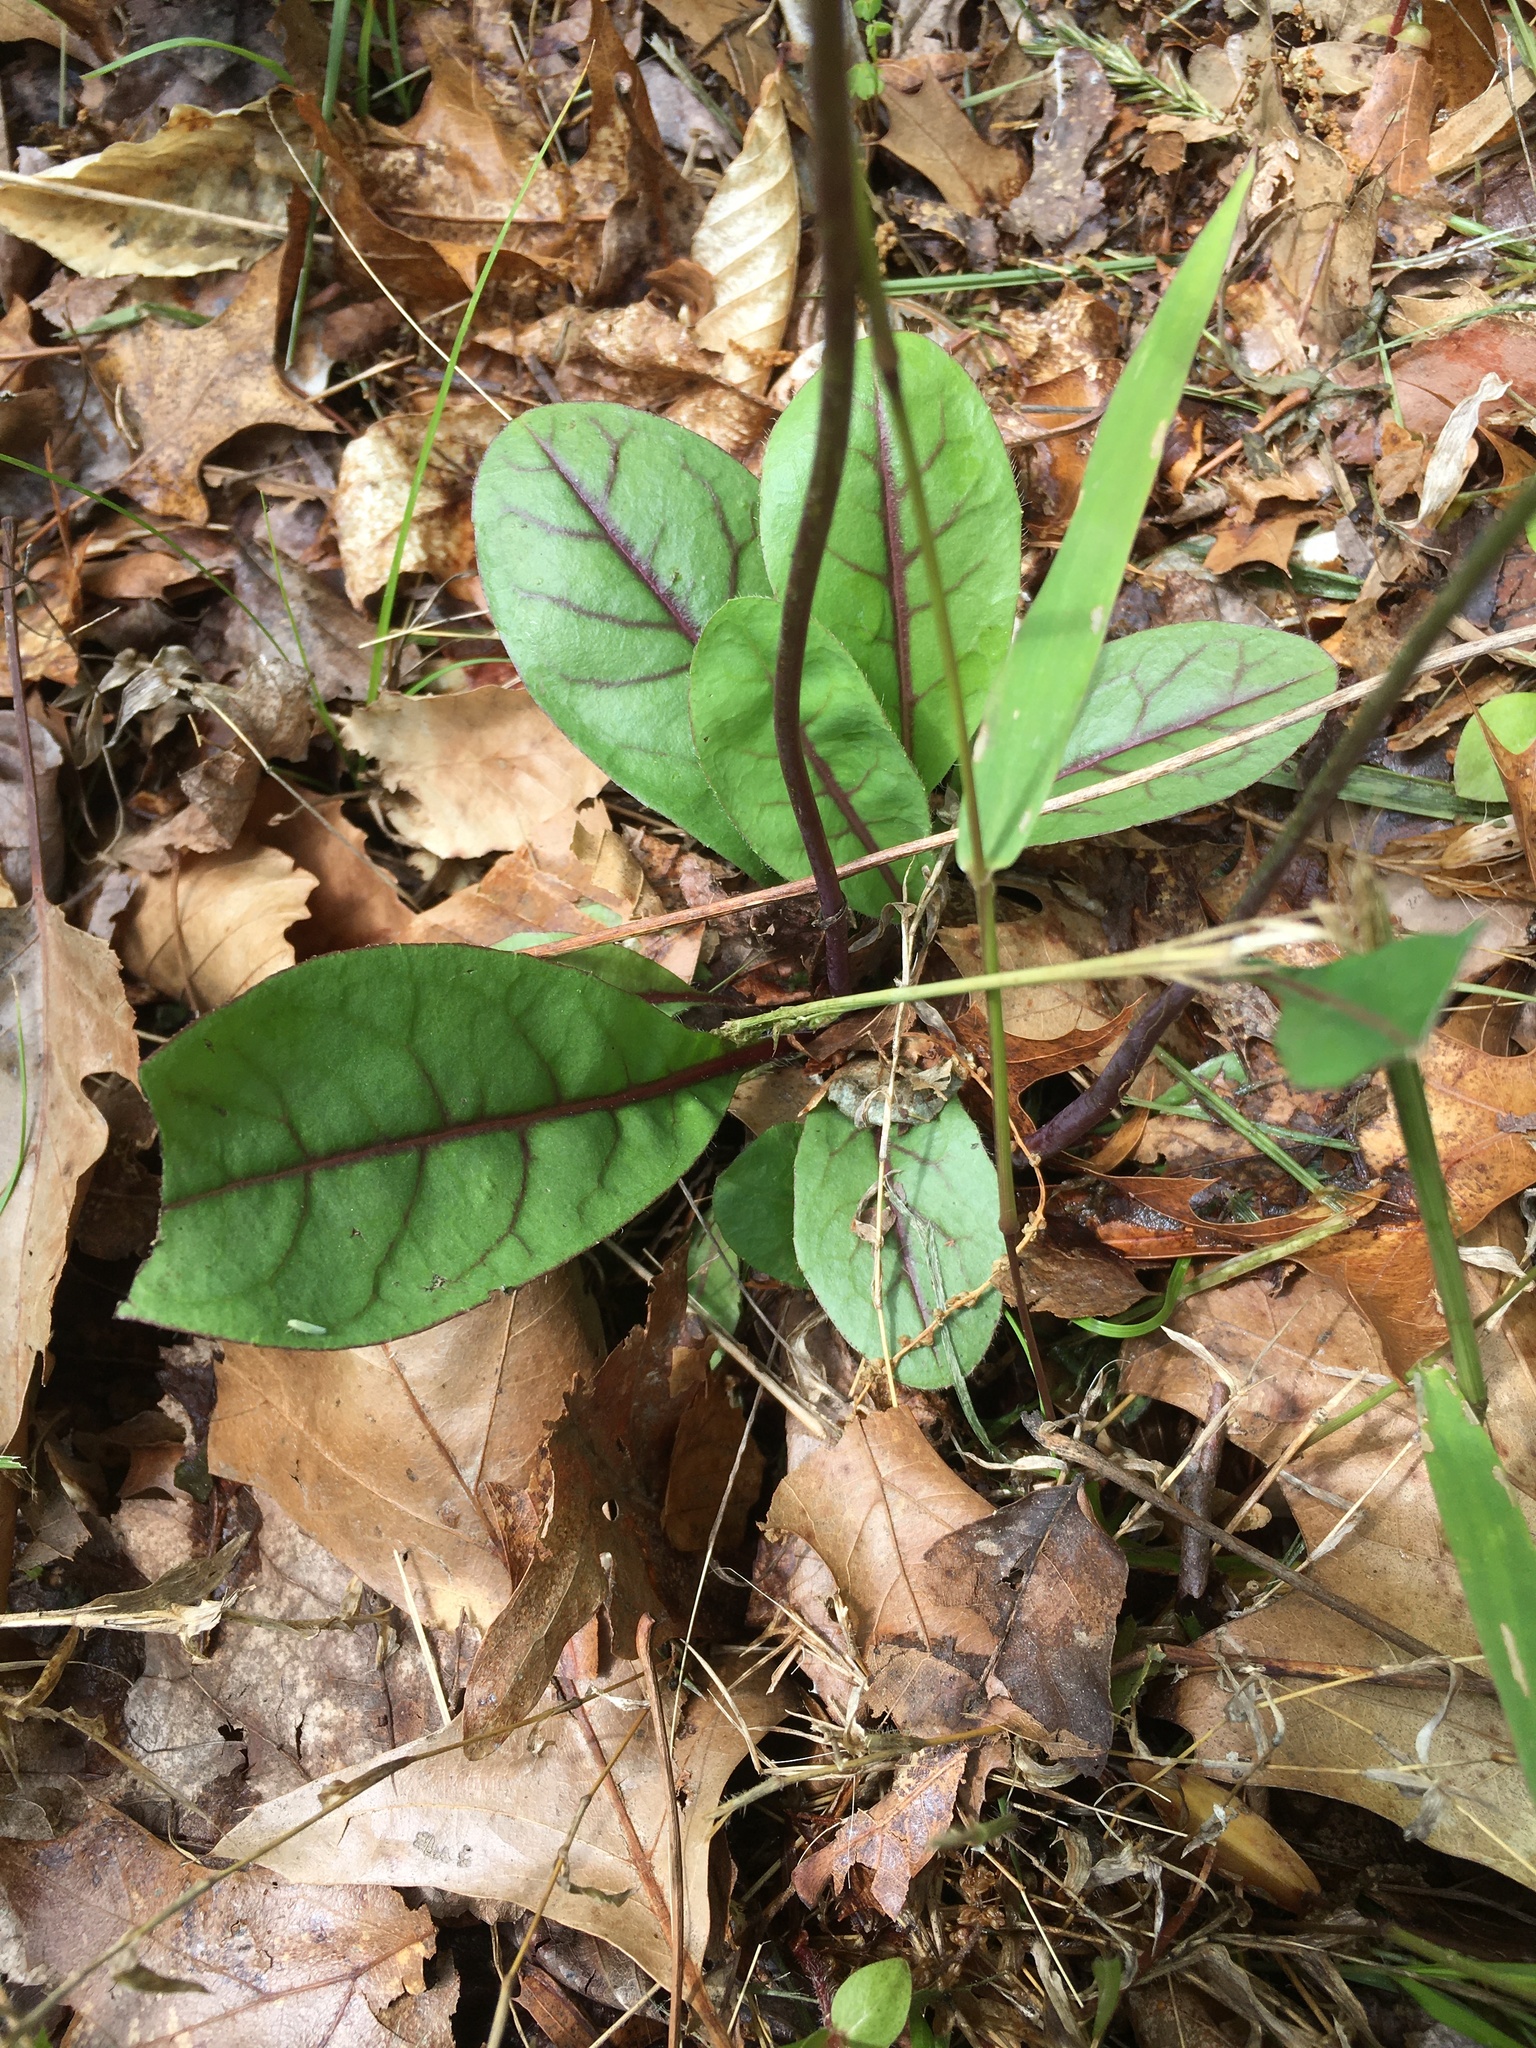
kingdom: Plantae
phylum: Tracheophyta
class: Magnoliopsida
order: Asterales
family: Asteraceae
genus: Hieracium
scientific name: Hieracium venosum
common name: Rattlesnake hawkweed
